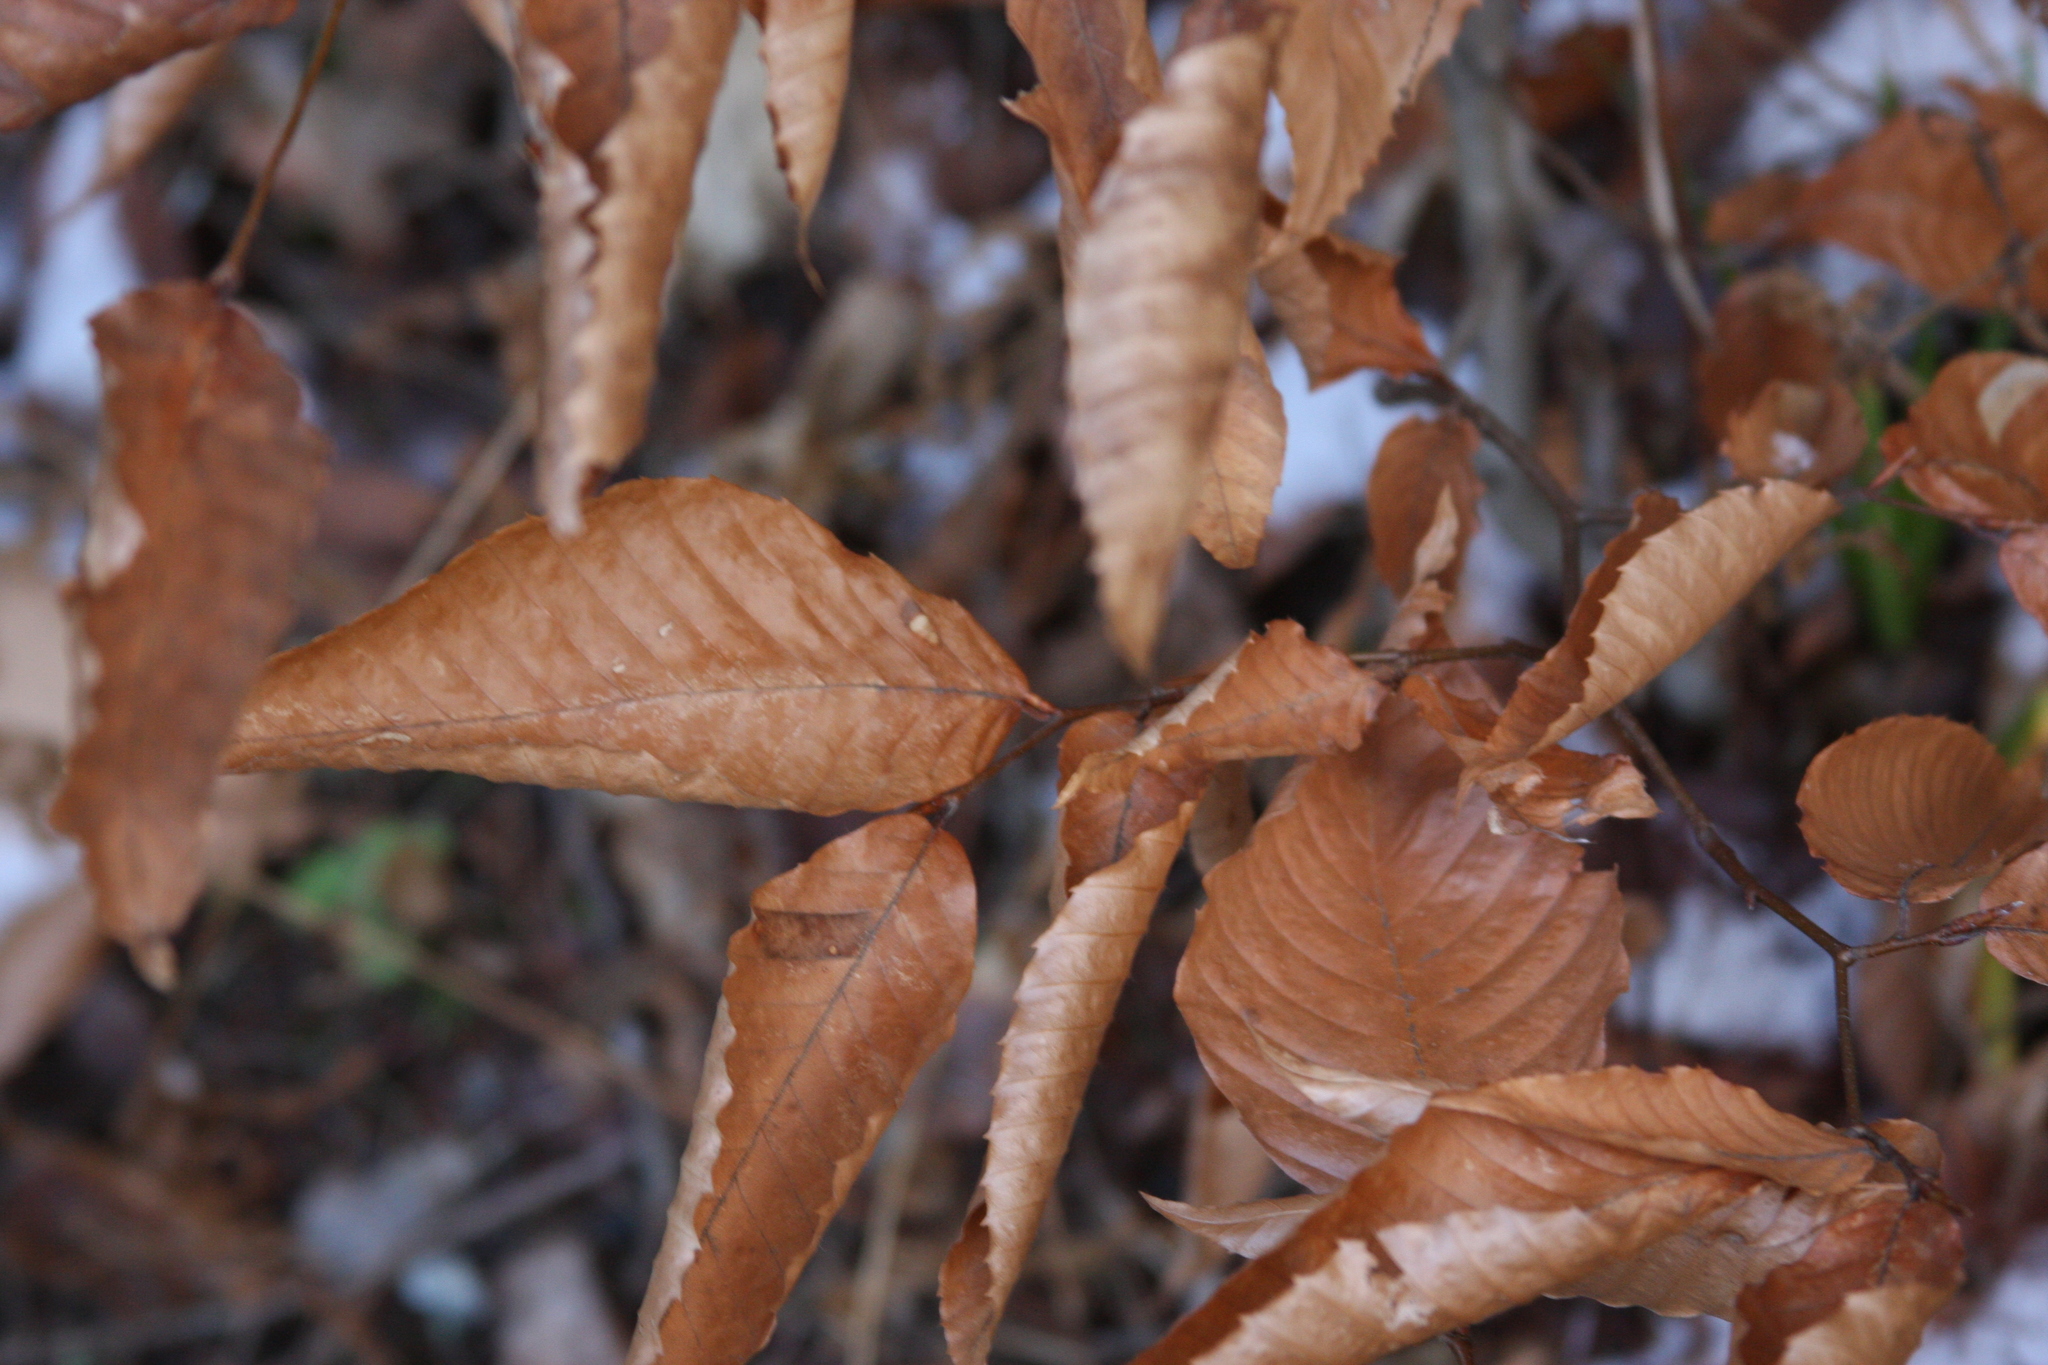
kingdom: Plantae
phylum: Tracheophyta
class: Magnoliopsida
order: Fagales
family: Fagaceae
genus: Fagus
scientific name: Fagus grandifolia
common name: American beech
